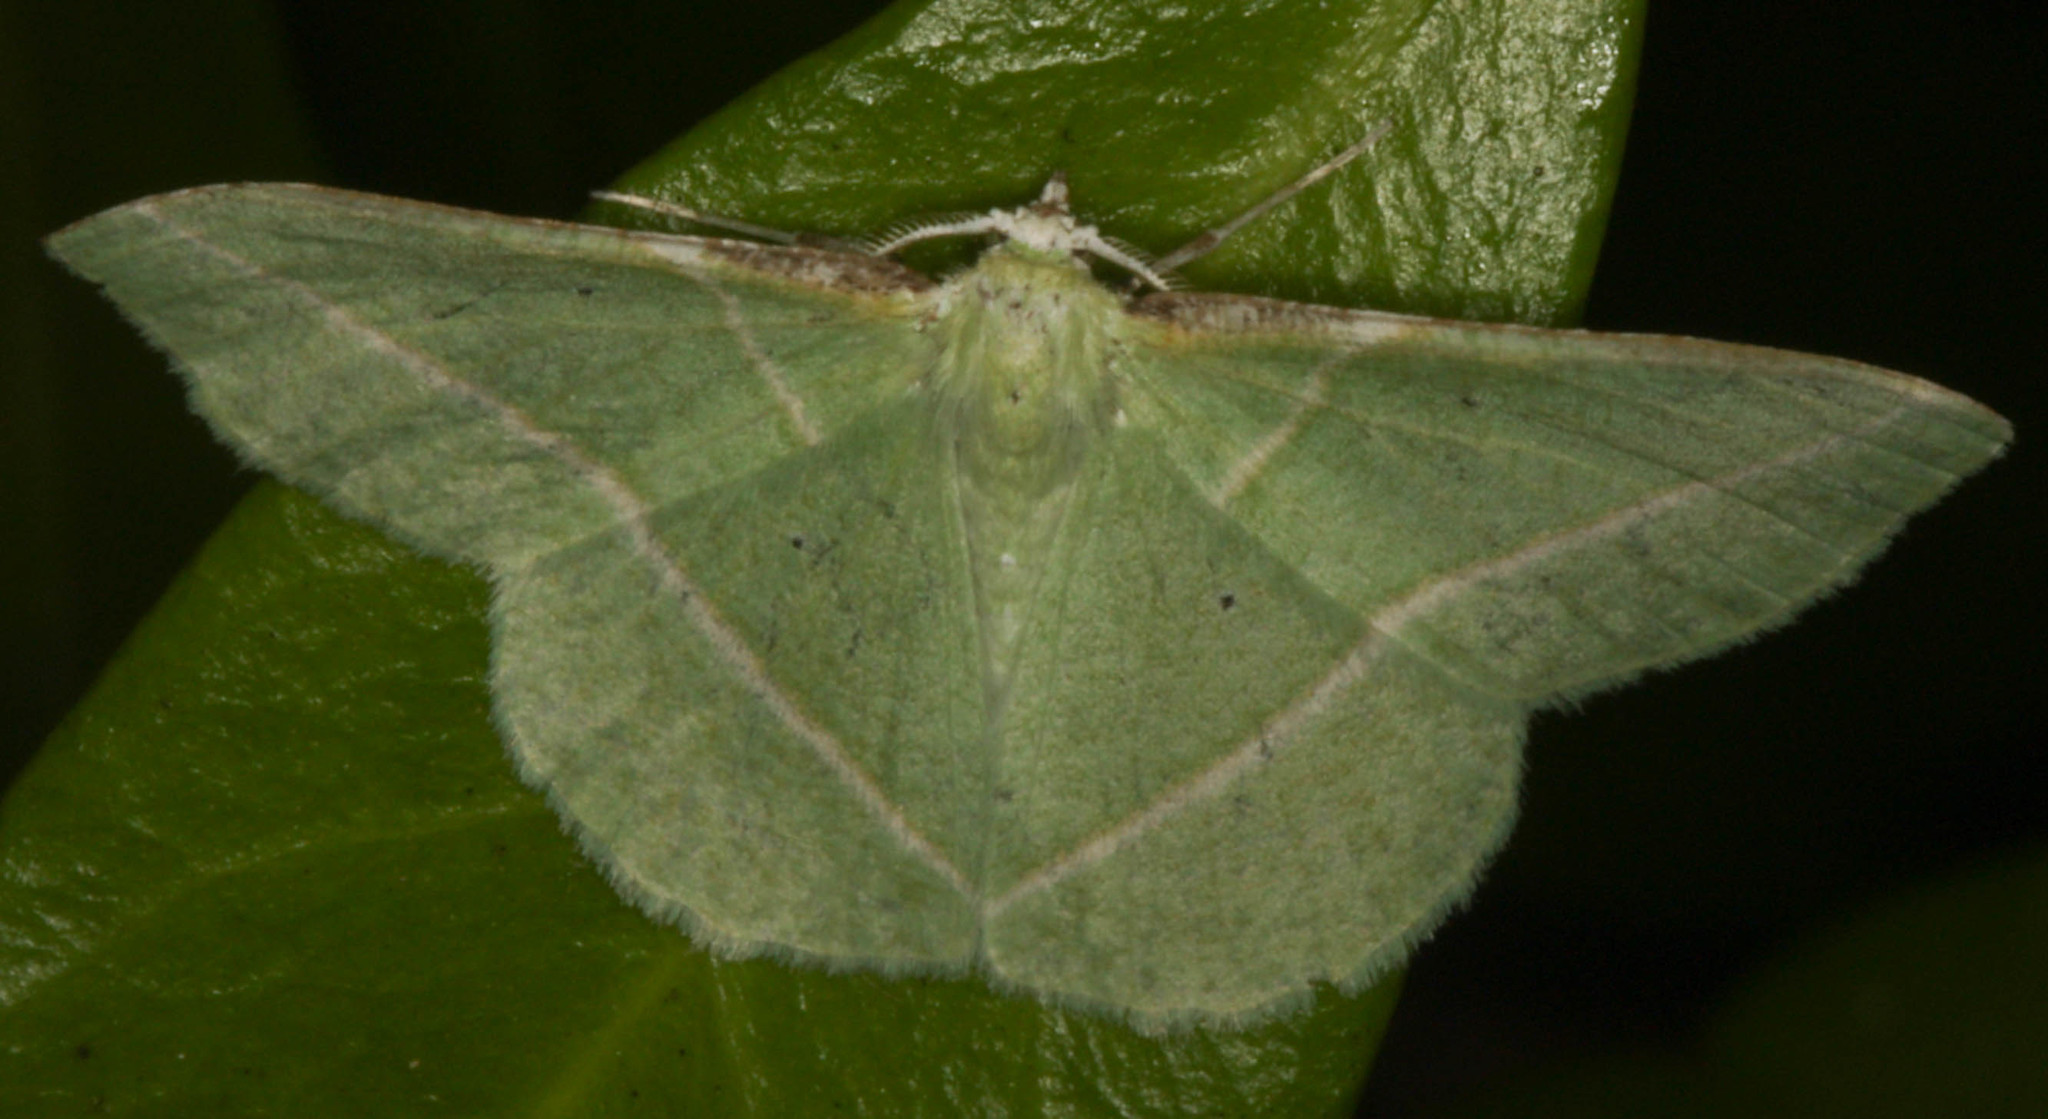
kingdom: Animalia
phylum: Arthropoda
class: Insecta
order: Lepidoptera
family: Geometridae
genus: Dichorda
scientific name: Dichorda illustraria
